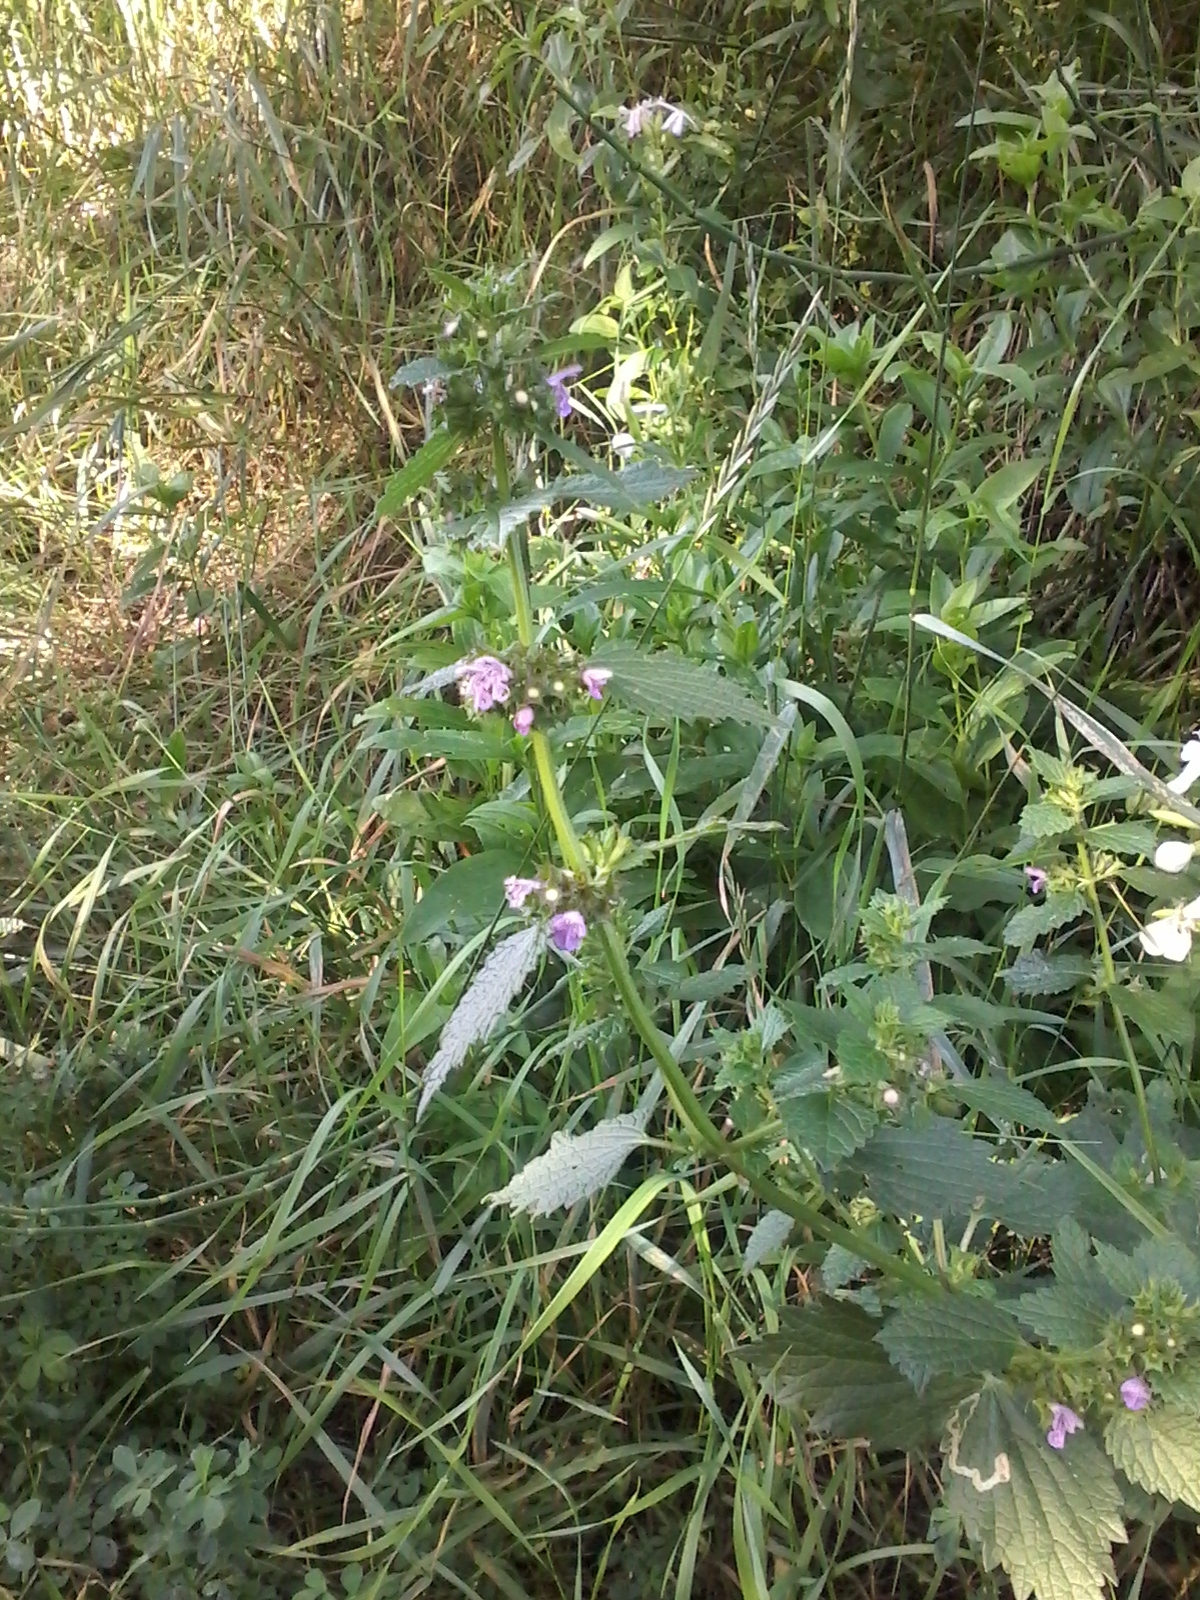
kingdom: Plantae
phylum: Tracheophyta
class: Magnoliopsida
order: Lamiales
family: Lamiaceae
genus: Ballota
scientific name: Ballota nigra
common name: Black horehound
